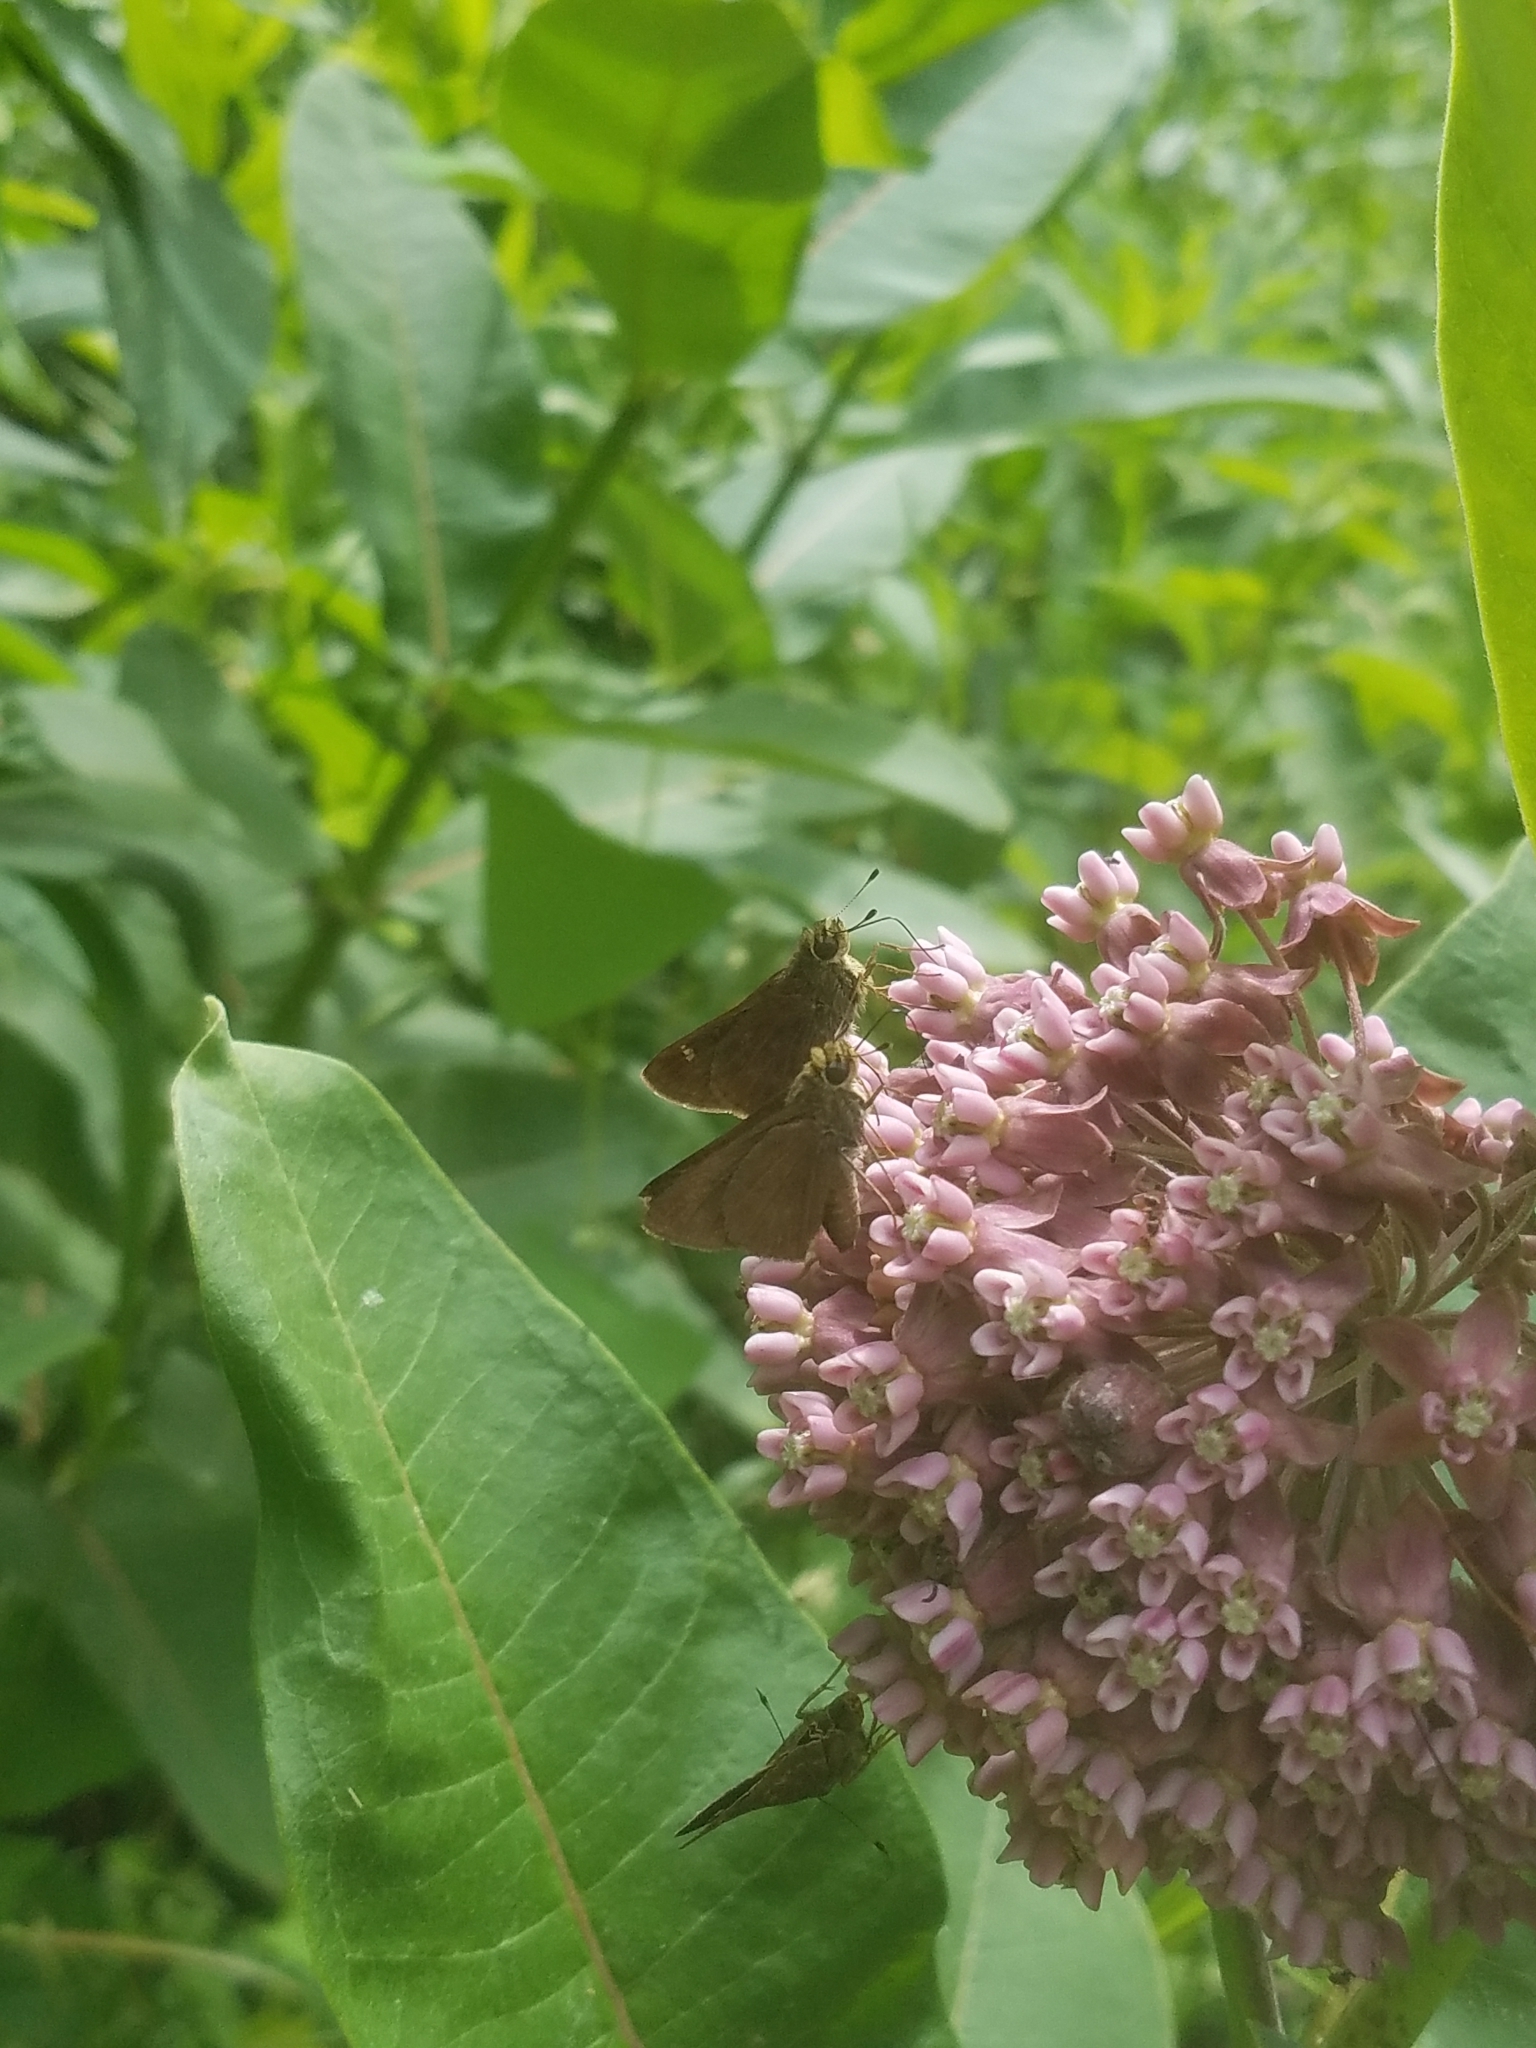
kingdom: Animalia
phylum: Arthropoda
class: Insecta
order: Lepidoptera
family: Hesperiidae
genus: Euphyes
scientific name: Euphyes vestris
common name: Dun skipper
